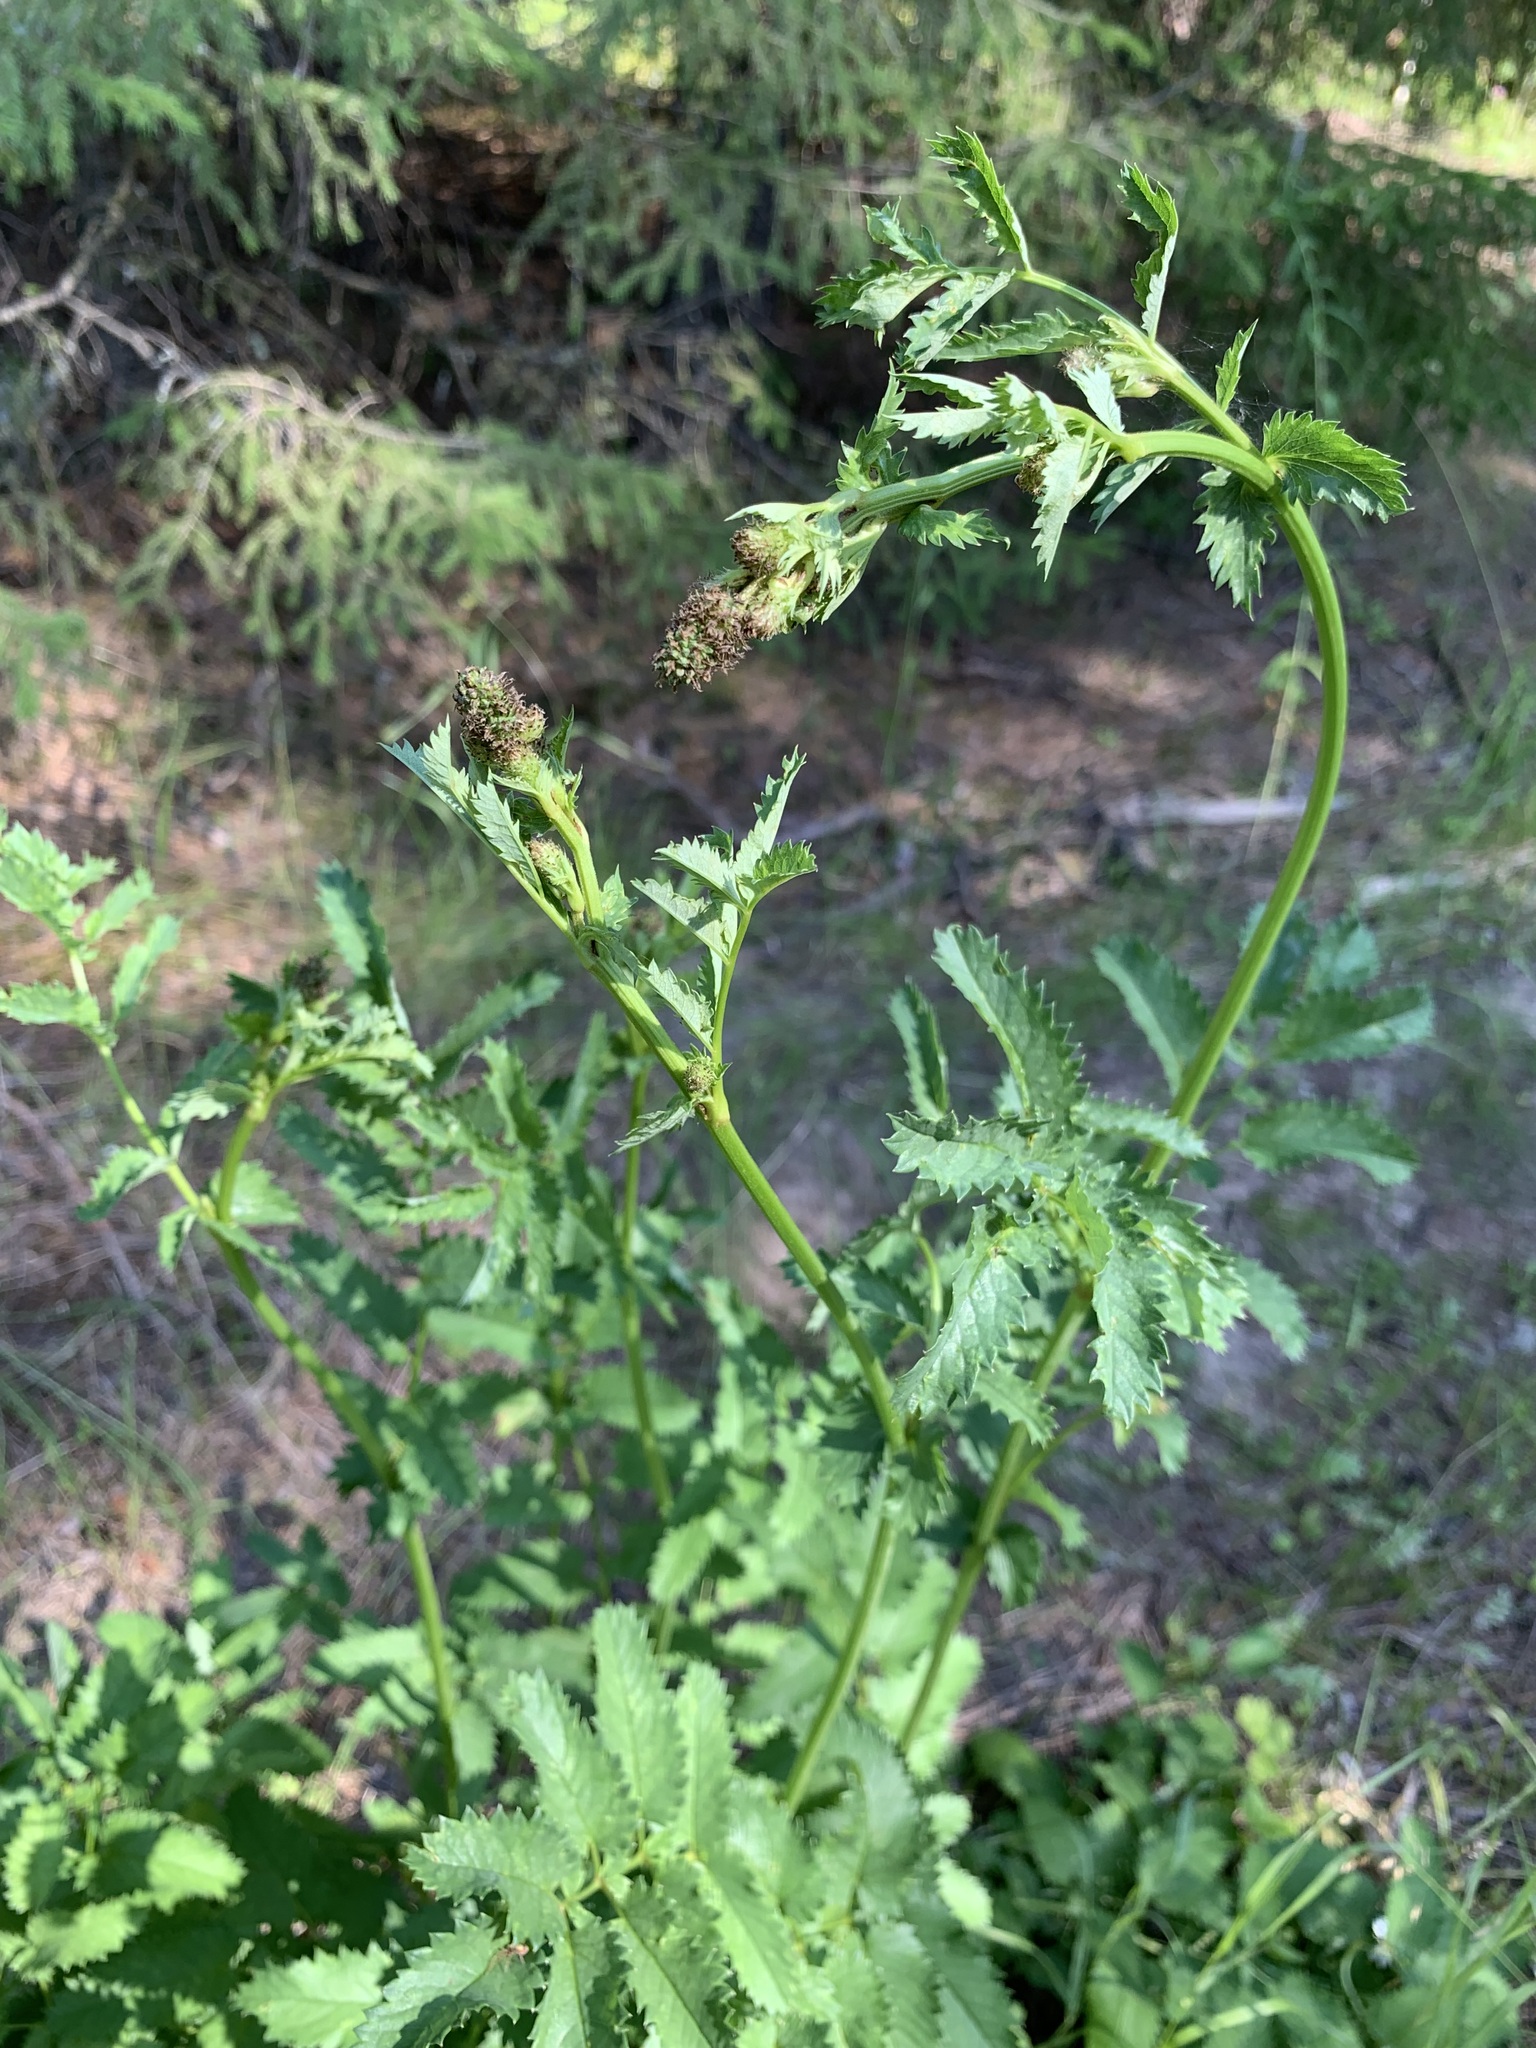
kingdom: Plantae
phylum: Tracheophyta
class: Magnoliopsida
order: Rosales
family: Rosaceae
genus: Sanguisorba
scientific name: Sanguisorba officinalis
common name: Great burnet
